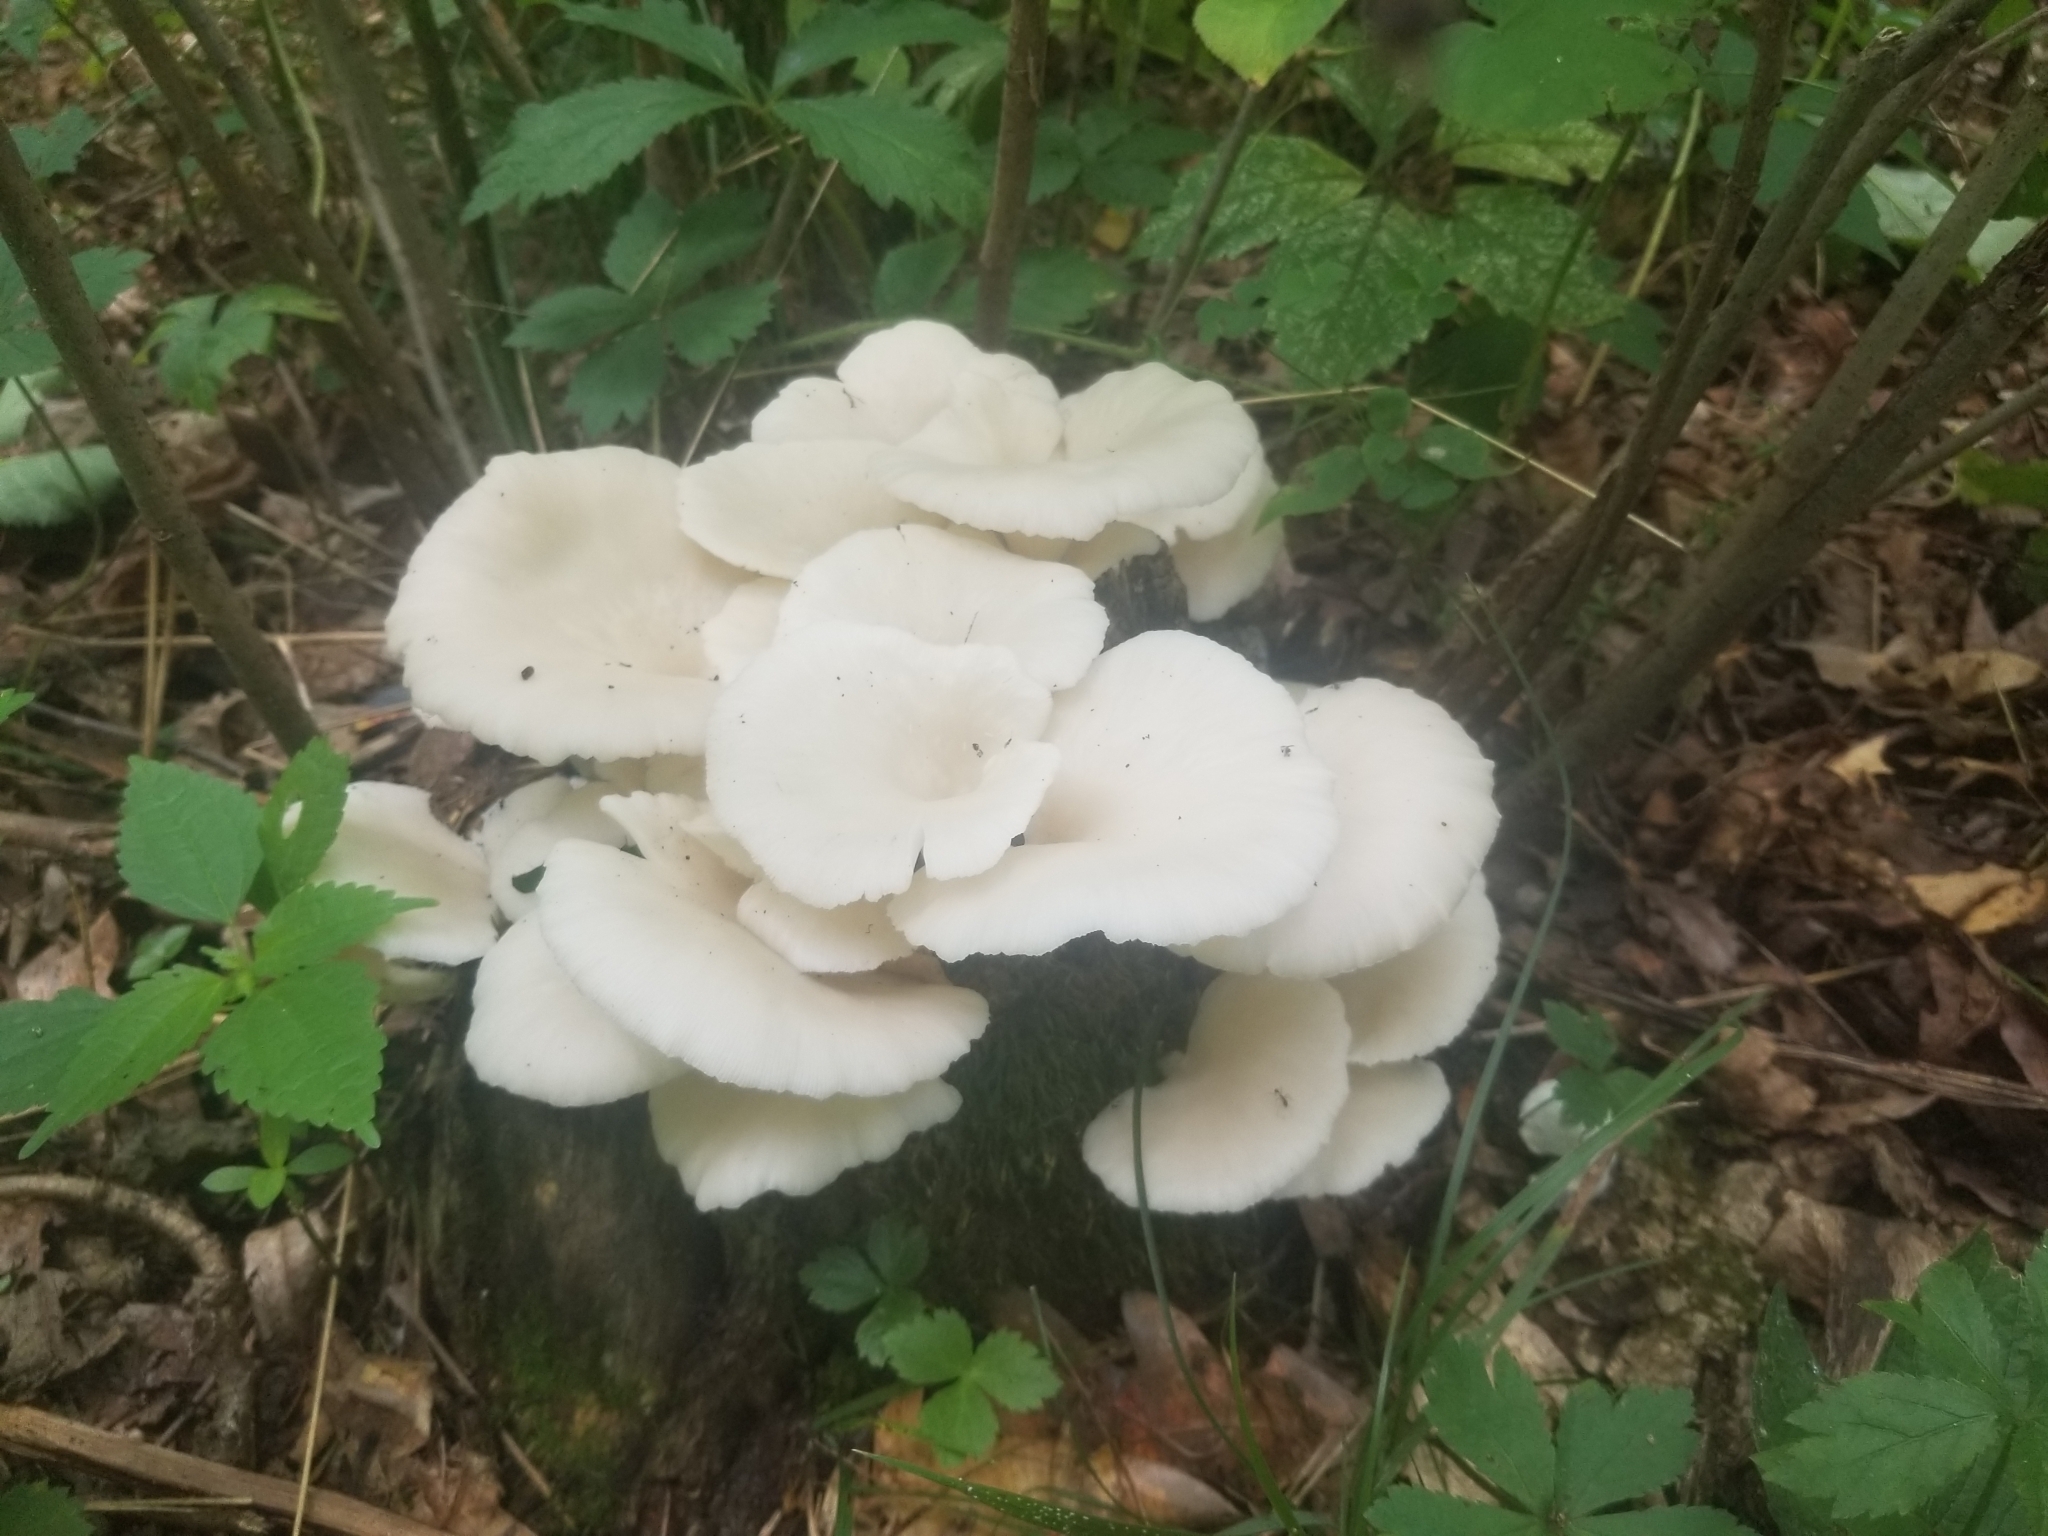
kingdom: Fungi
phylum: Basidiomycota
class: Agaricomycetes
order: Agaricales
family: Pleurotaceae
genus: Pleurotus
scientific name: Pleurotus pulmonarius
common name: Pale oyster
